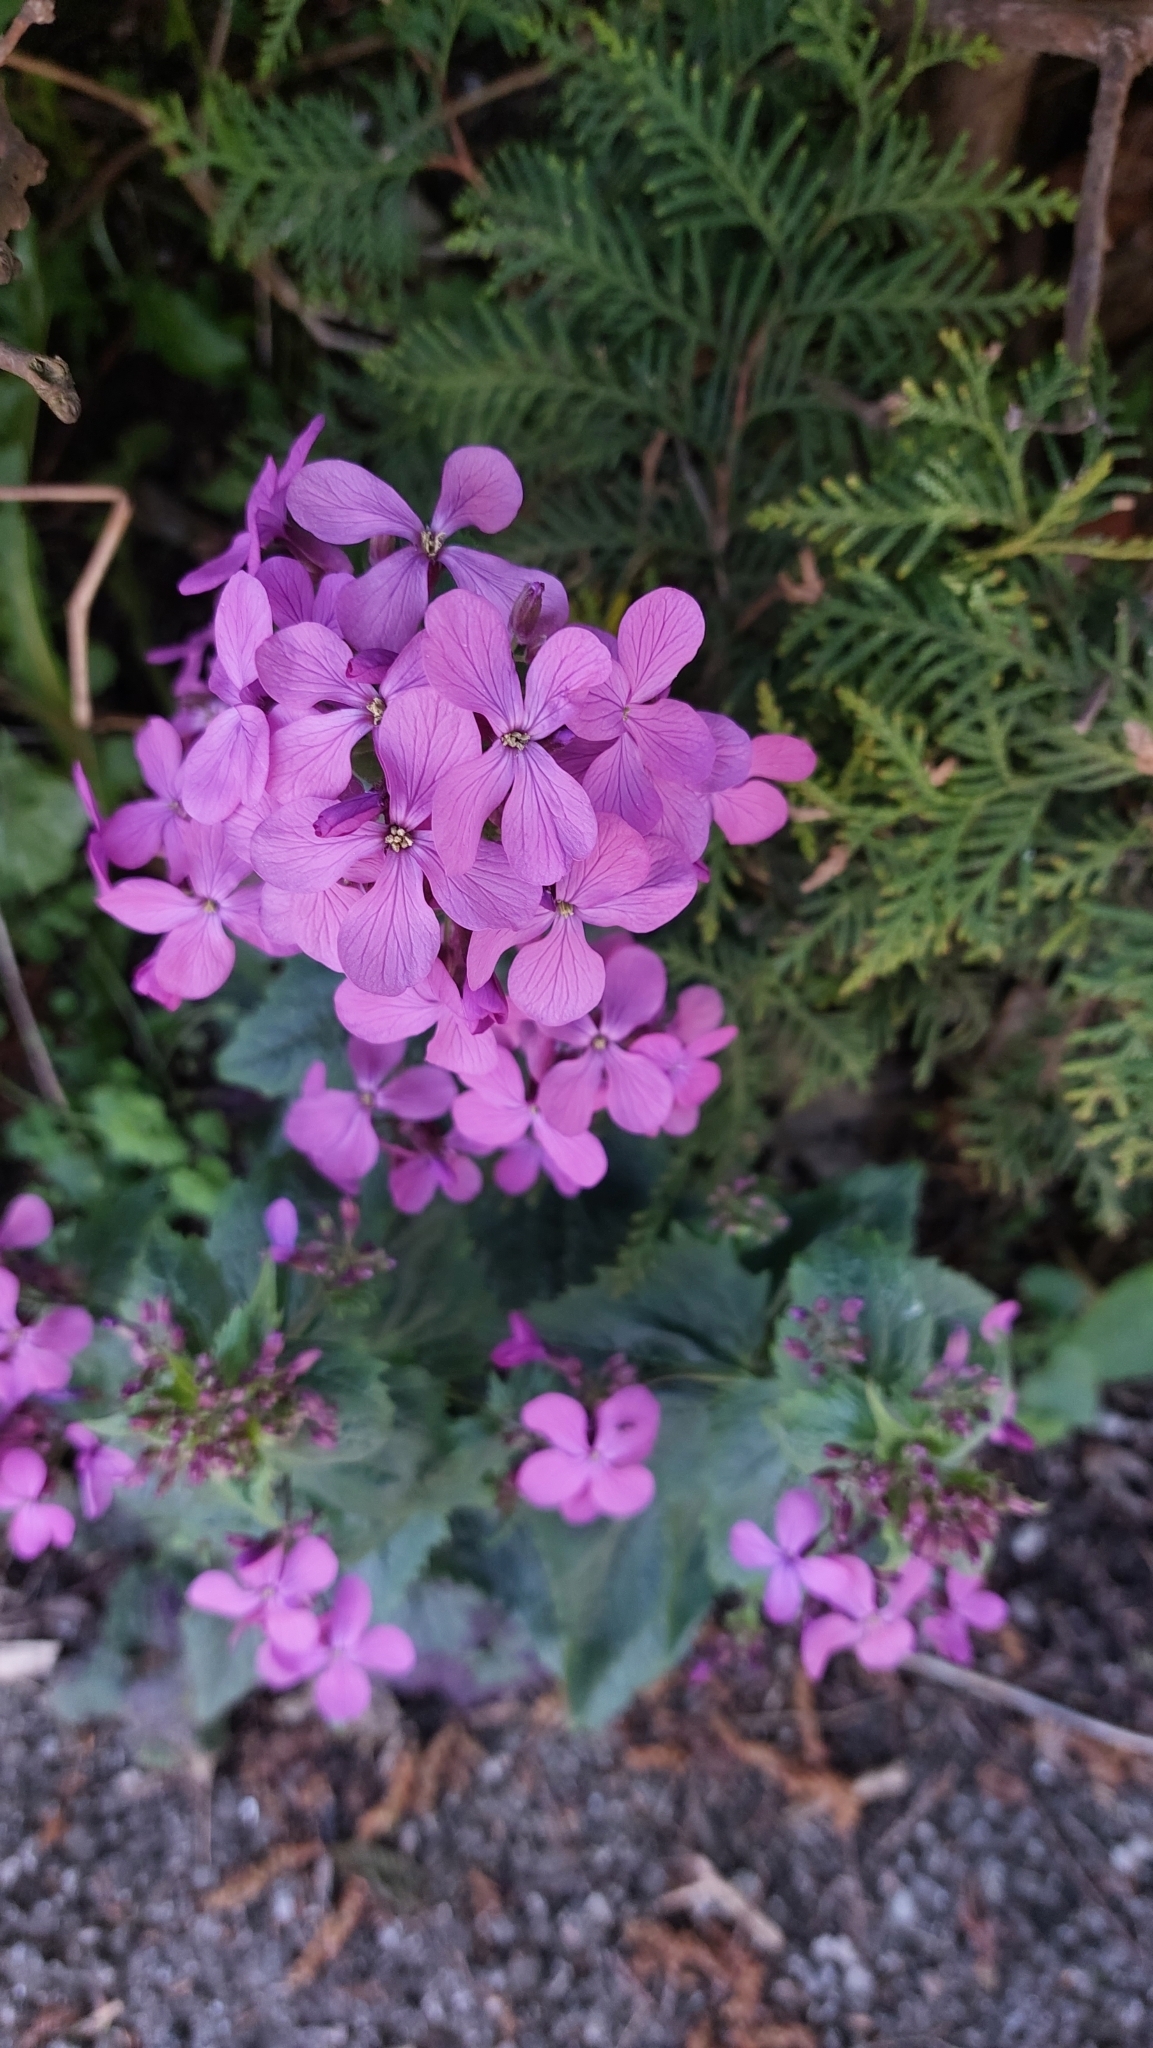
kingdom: Plantae
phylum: Tracheophyta
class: Magnoliopsida
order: Brassicales
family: Brassicaceae
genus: Lunaria
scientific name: Lunaria annua
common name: Honesty
